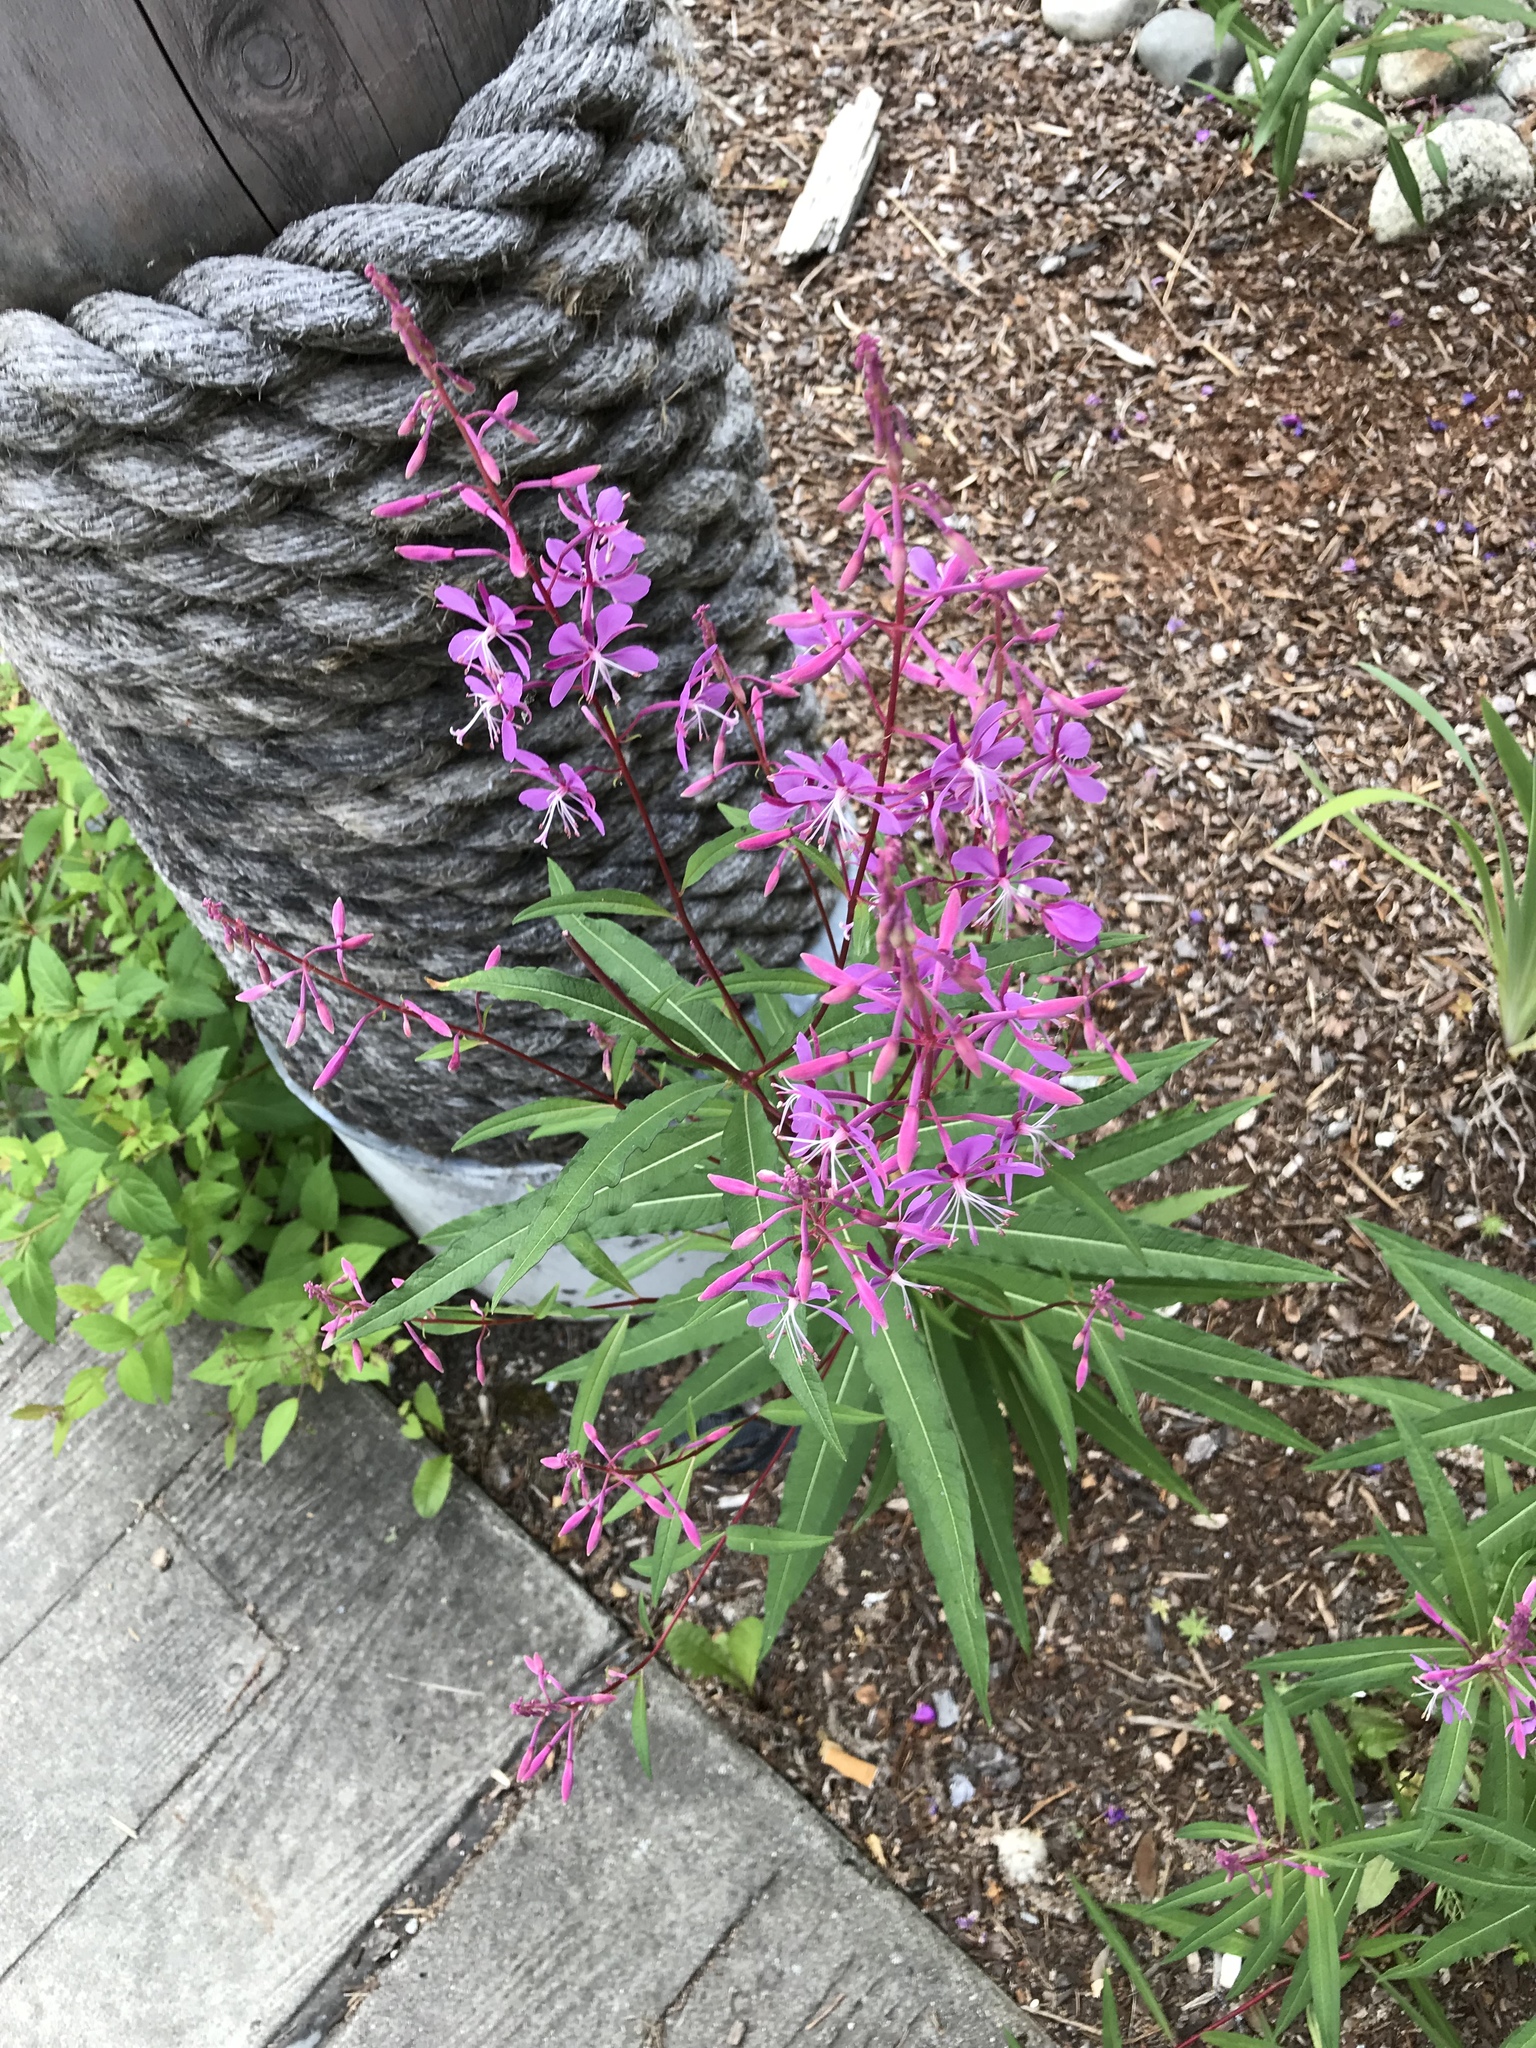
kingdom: Plantae
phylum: Tracheophyta
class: Magnoliopsida
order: Myrtales
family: Onagraceae
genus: Chamaenerion
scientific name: Chamaenerion angustifolium
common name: Fireweed
